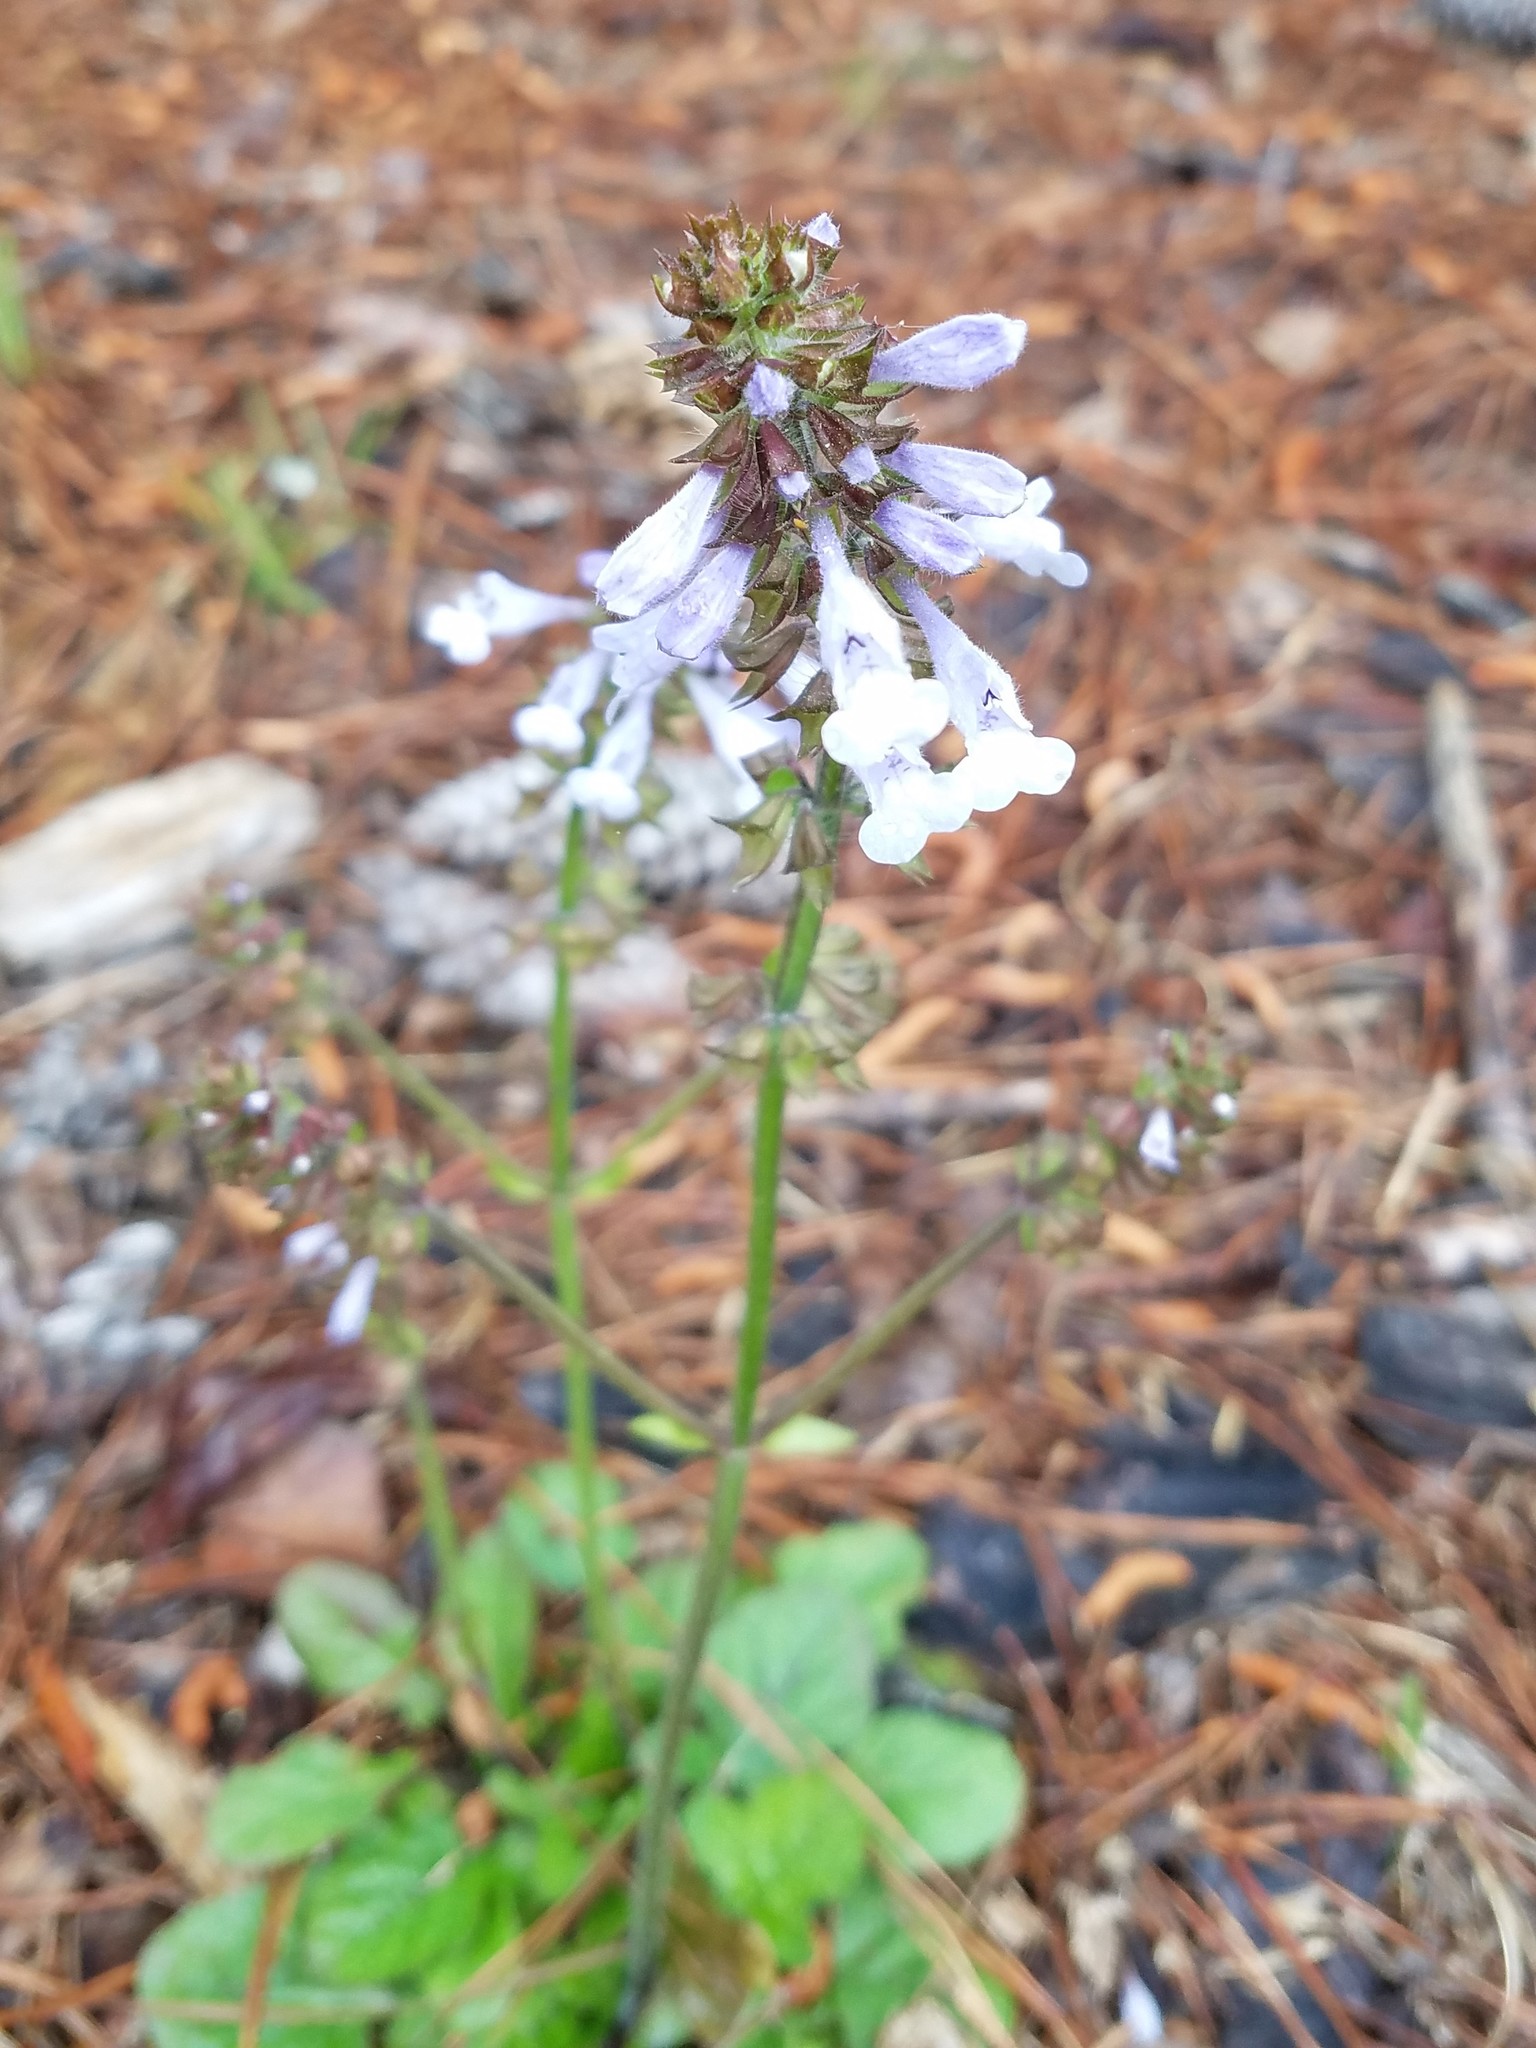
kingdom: Plantae
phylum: Tracheophyta
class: Magnoliopsida
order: Lamiales
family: Lamiaceae
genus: Salvia
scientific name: Salvia lyrata
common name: Cancerweed
